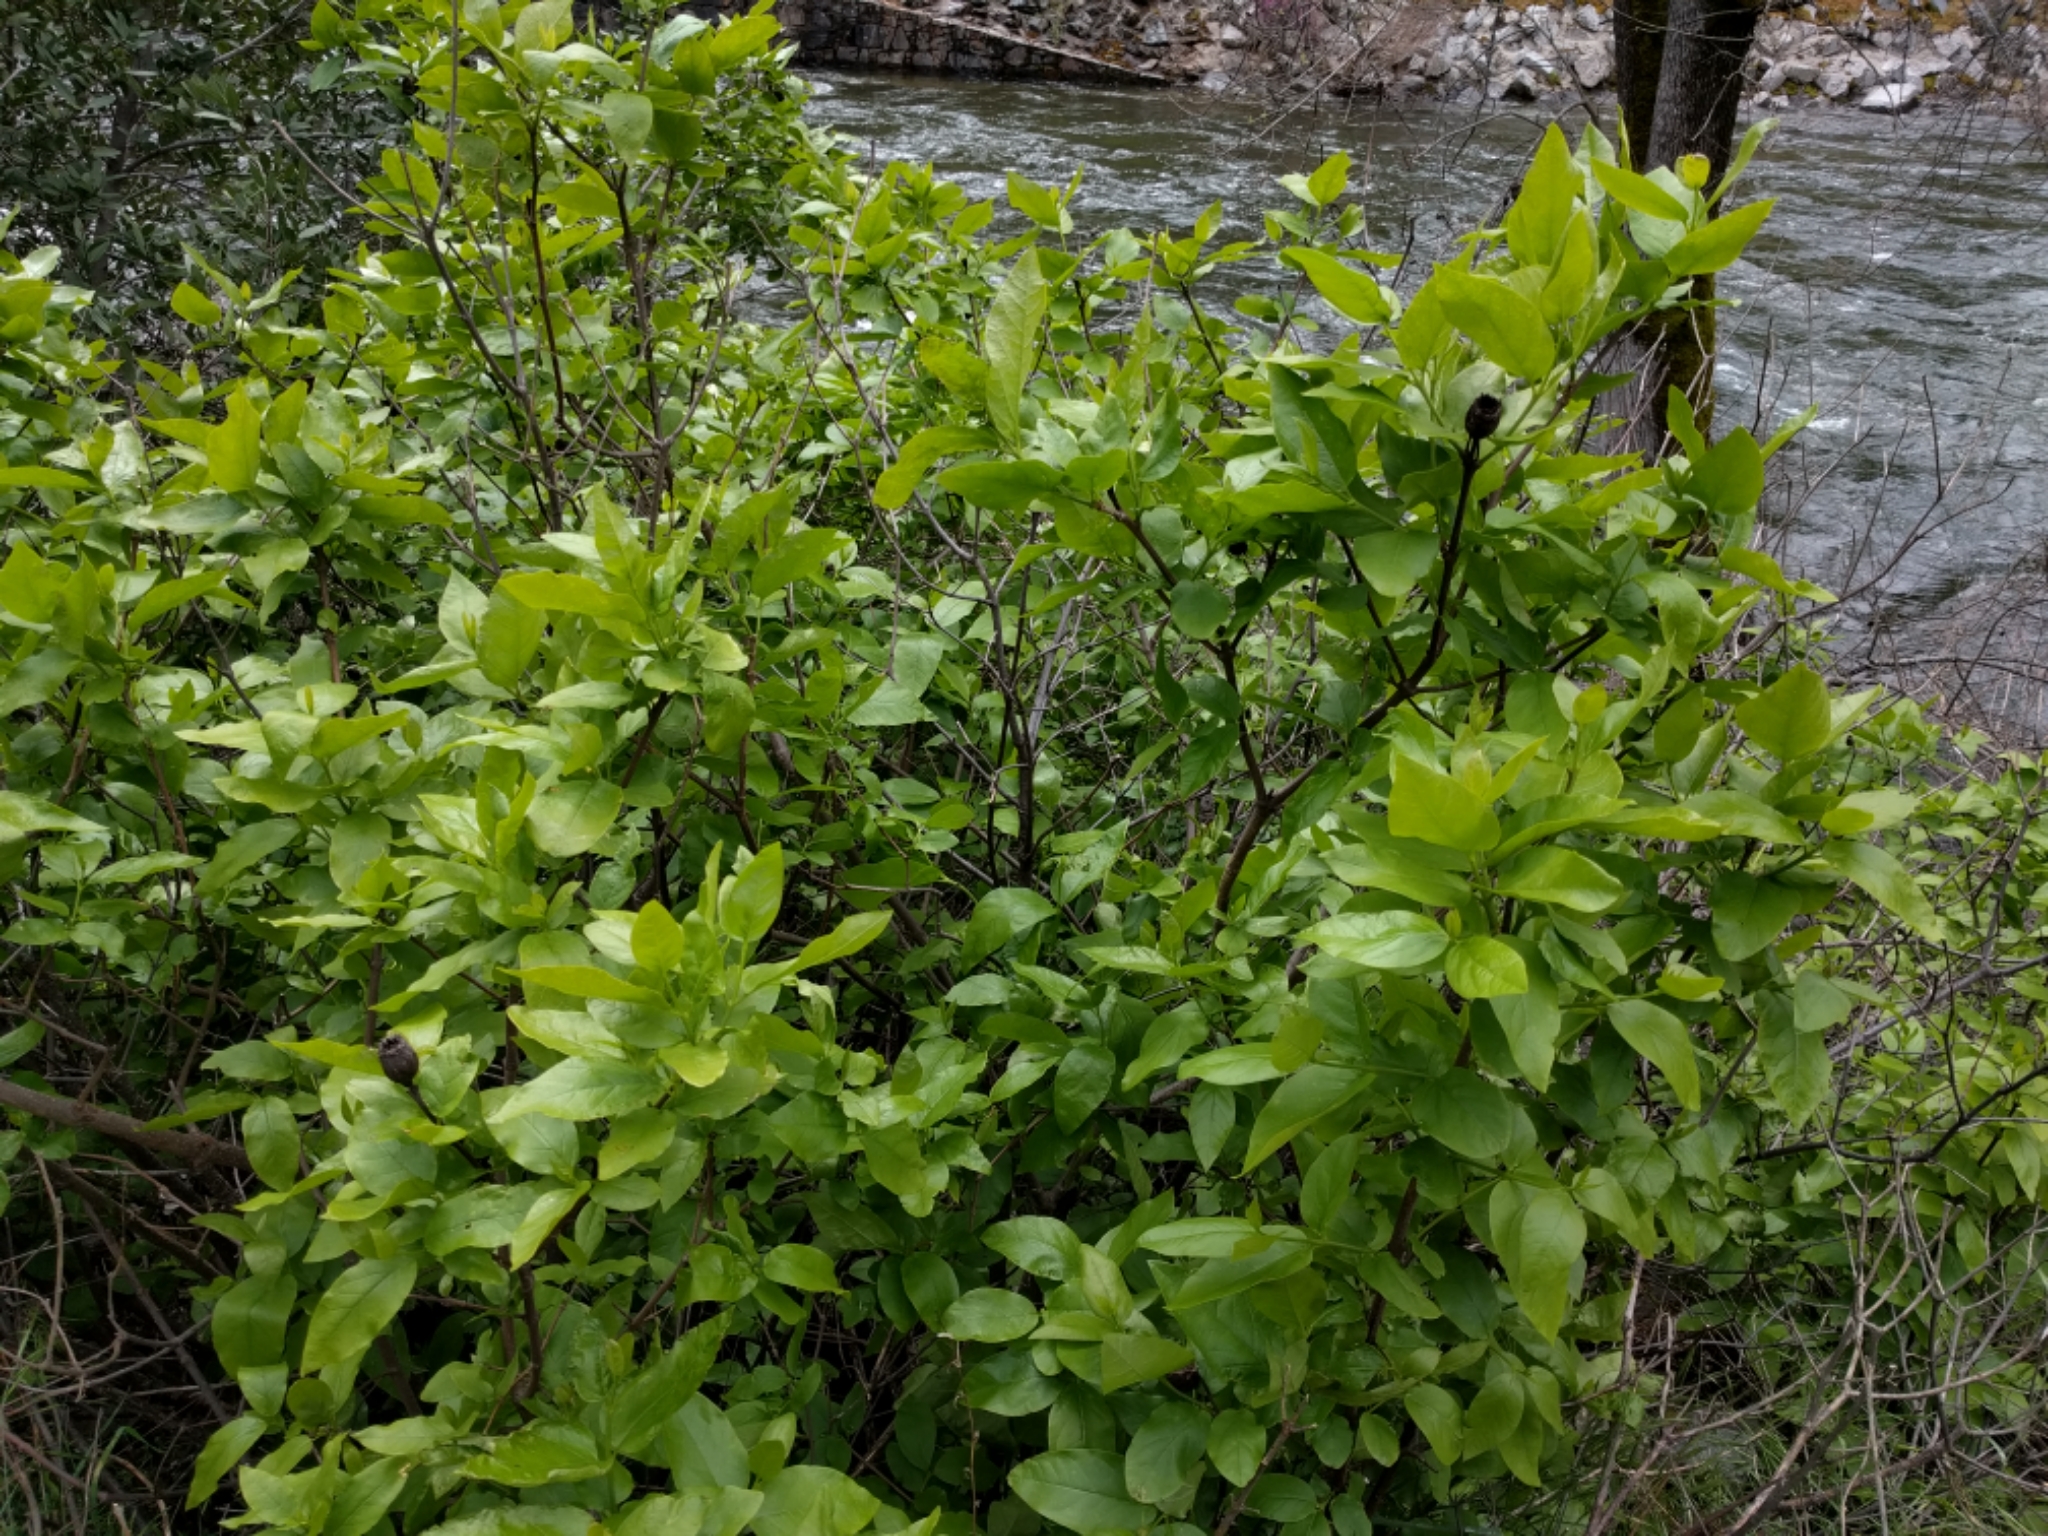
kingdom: Plantae
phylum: Tracheophyta
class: Magnoliopsida
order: Laurales
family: Calycanthaceae
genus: Calycanthus
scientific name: Calycanthus occidentalis
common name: California spicebush
